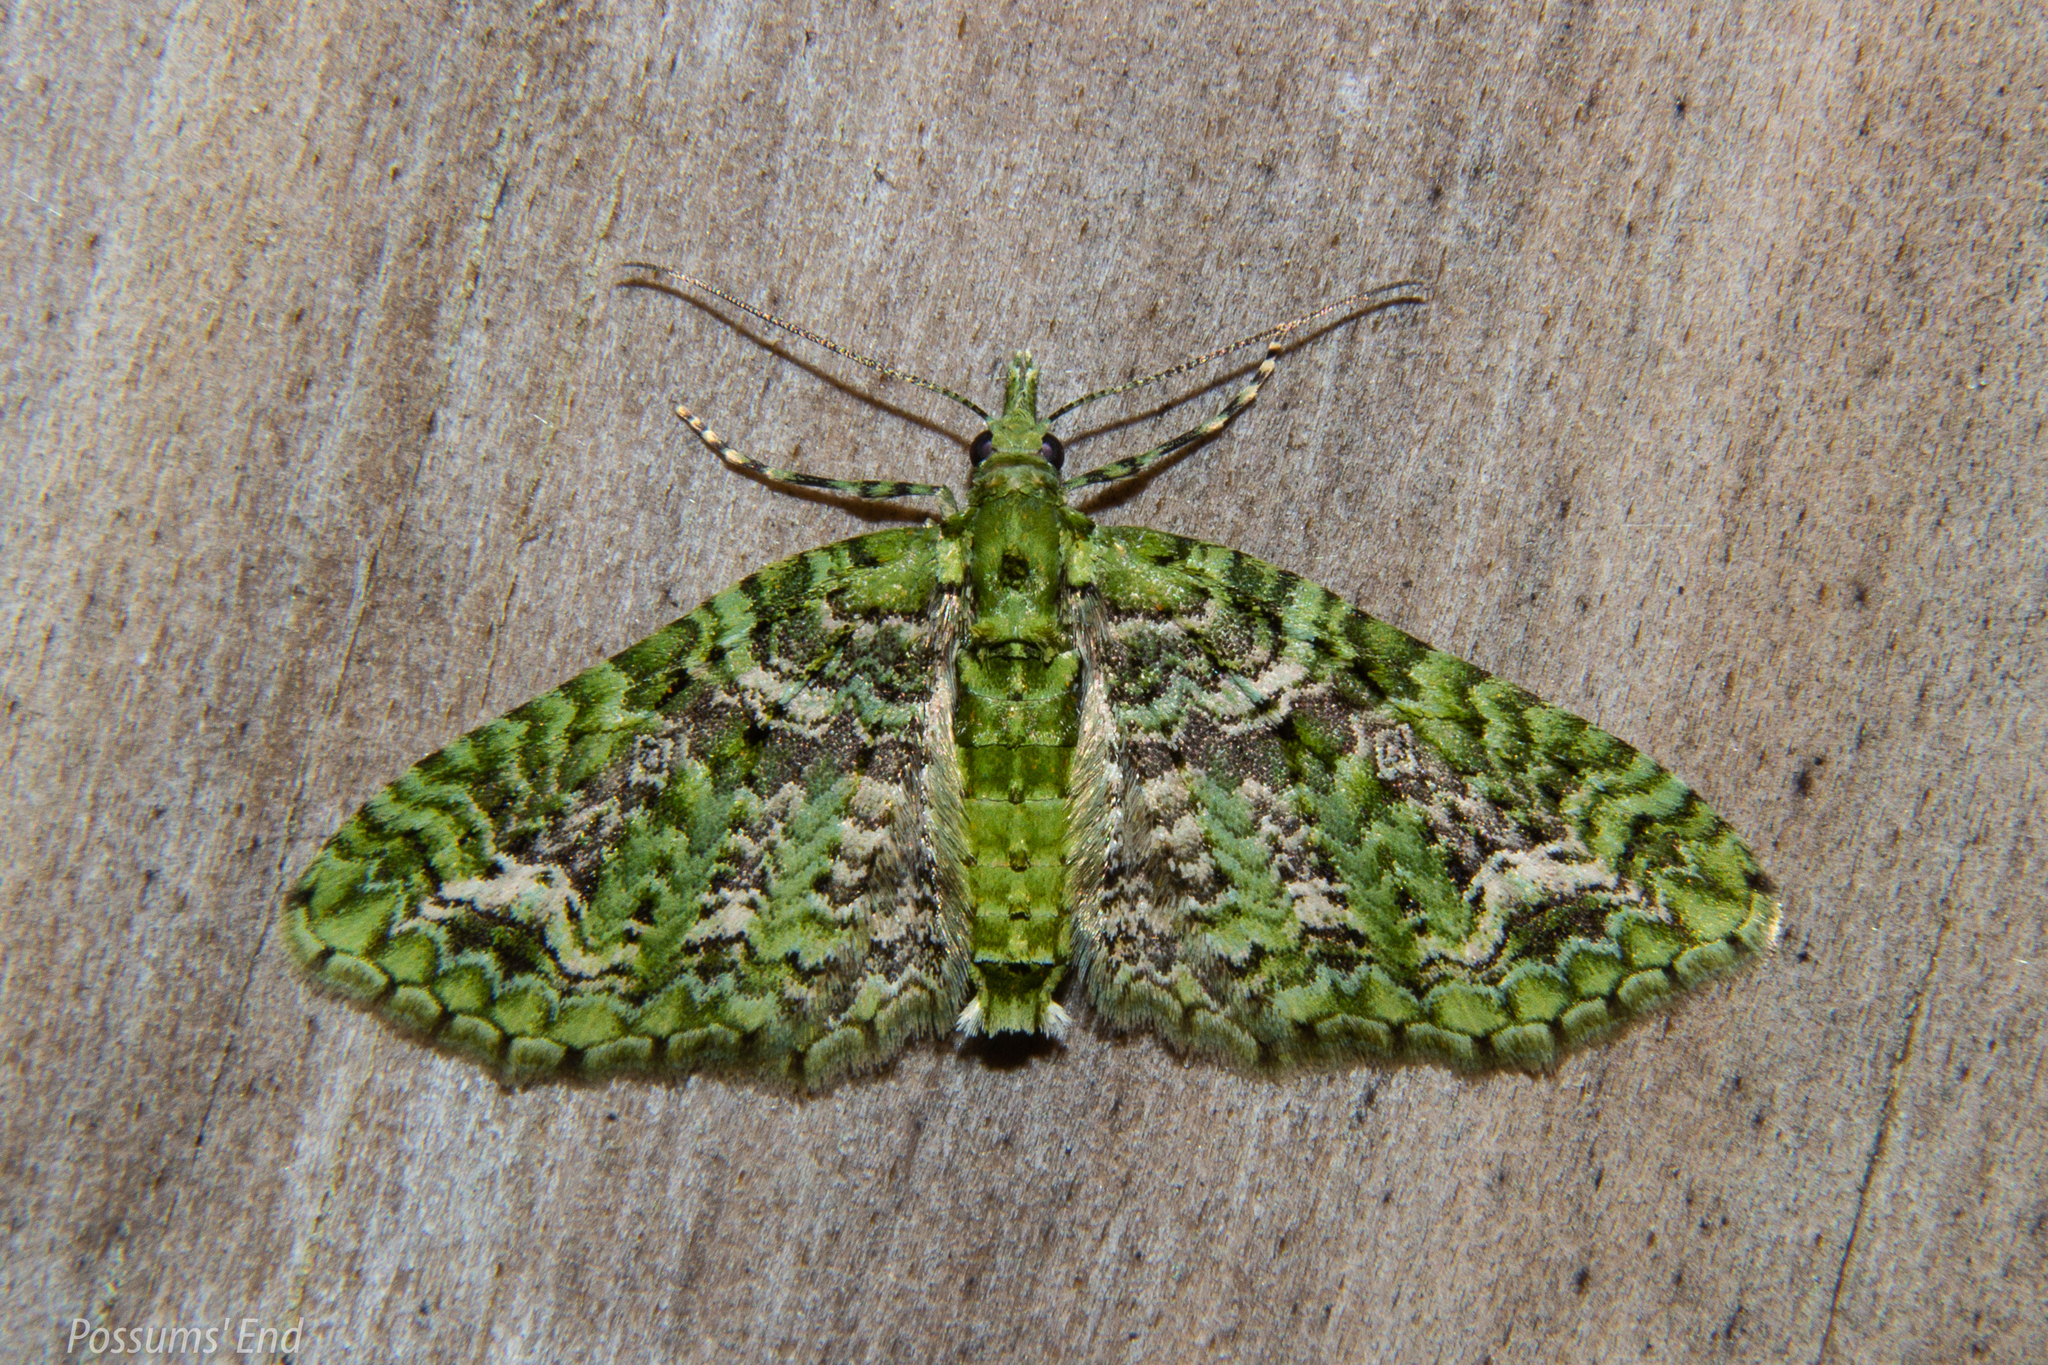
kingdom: Animalia
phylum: Arthropoda
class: Insecta
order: Lepidoptera
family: Geometridae
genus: Pasiphila
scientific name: Pasiphila muscosata
